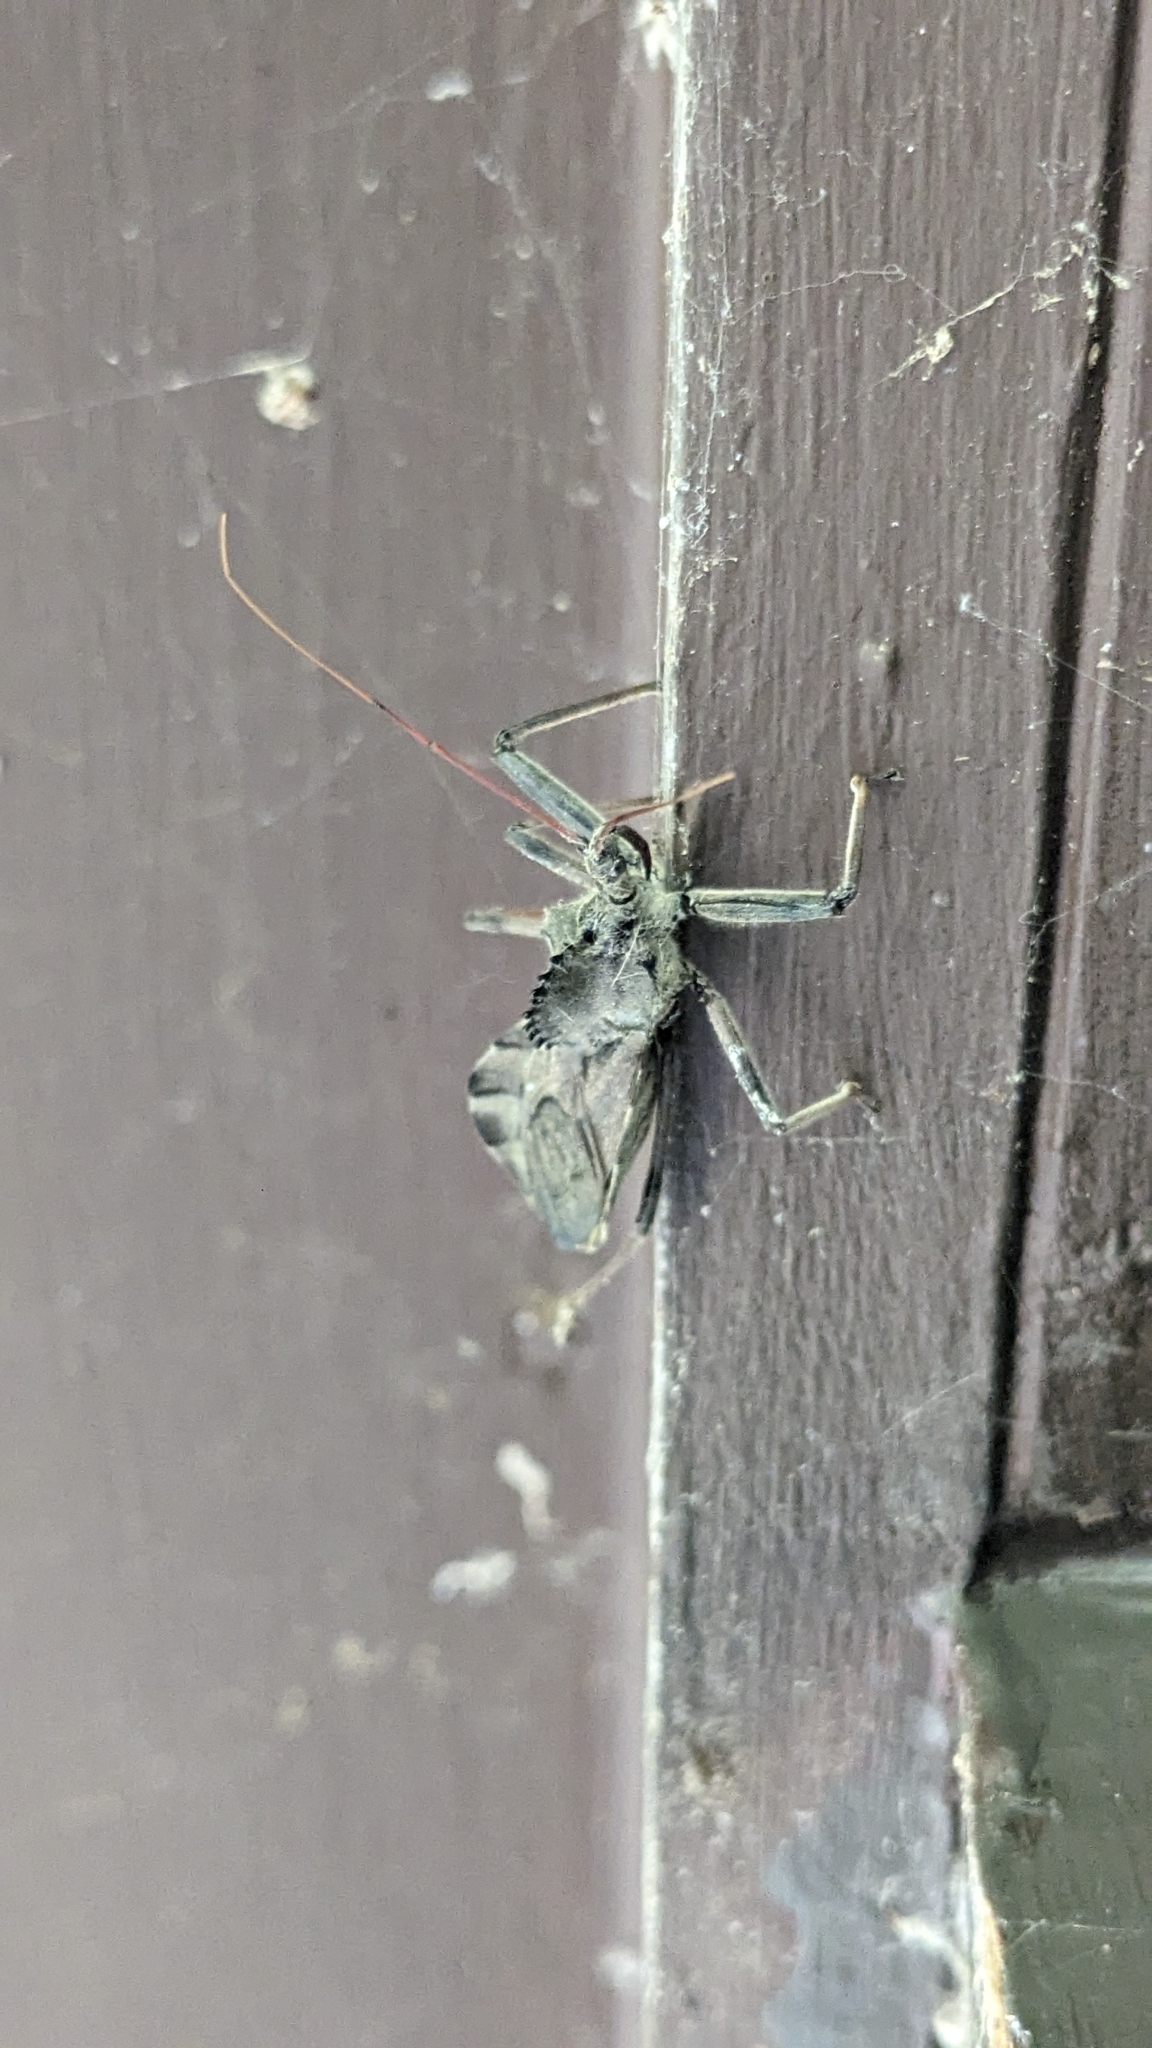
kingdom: Animalia
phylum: Arthropoda
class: Insecta
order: Hemiptera
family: Reduviidae
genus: Arilus
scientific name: Arilus cristatus
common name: North american wheel bug
